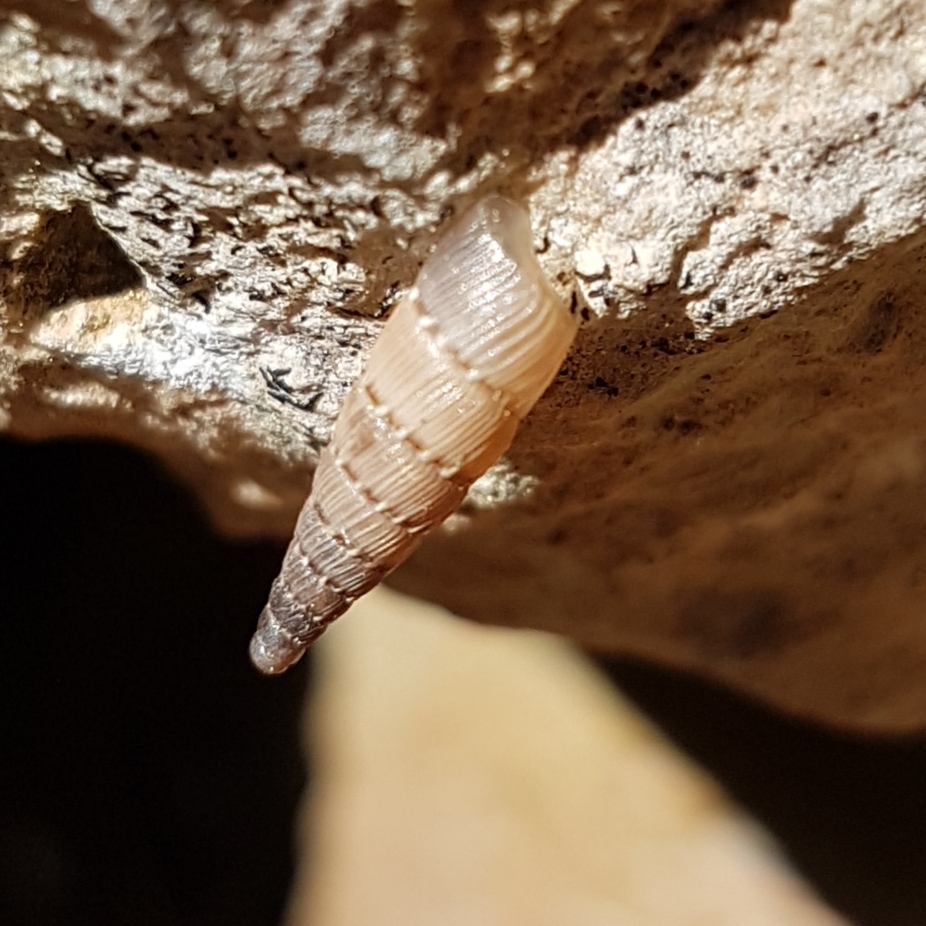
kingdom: Animalia
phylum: Mollusca
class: Gastropoda
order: Stylommatophora
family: Clausiliidae
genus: Papillifera
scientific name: Papillifera papillaris
